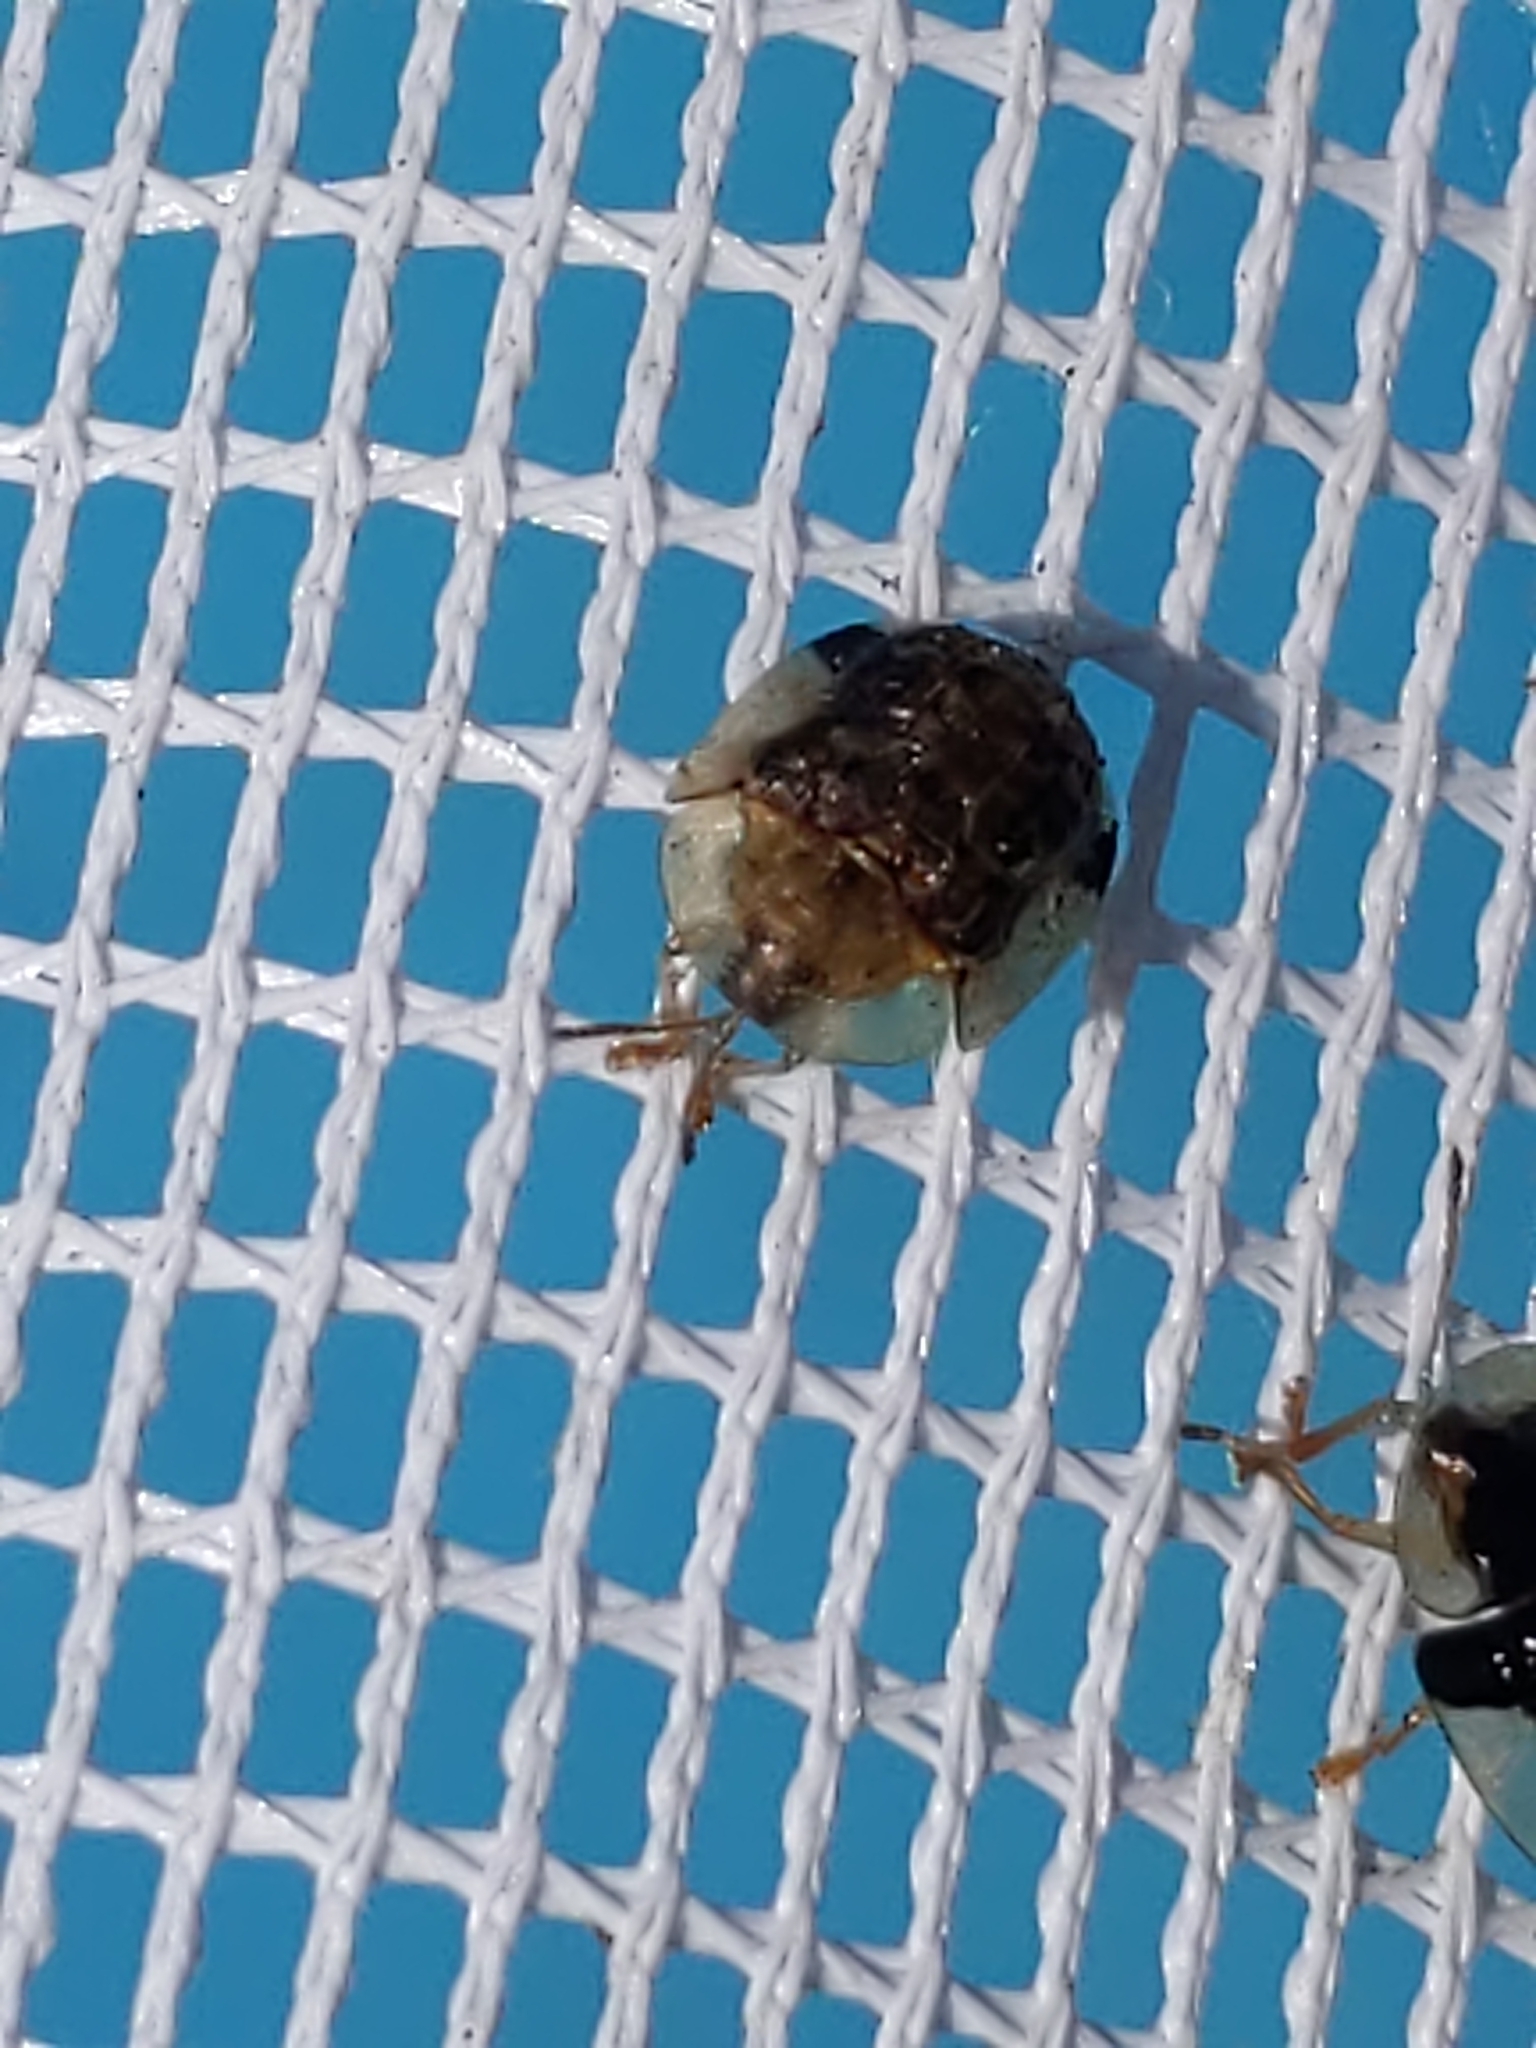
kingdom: Animalia
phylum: Arthropoda
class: Insecta
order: Coleoptera
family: Chrysomelidae
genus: Cassida
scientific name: Cassida piperata
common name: Small tortoise beetle
